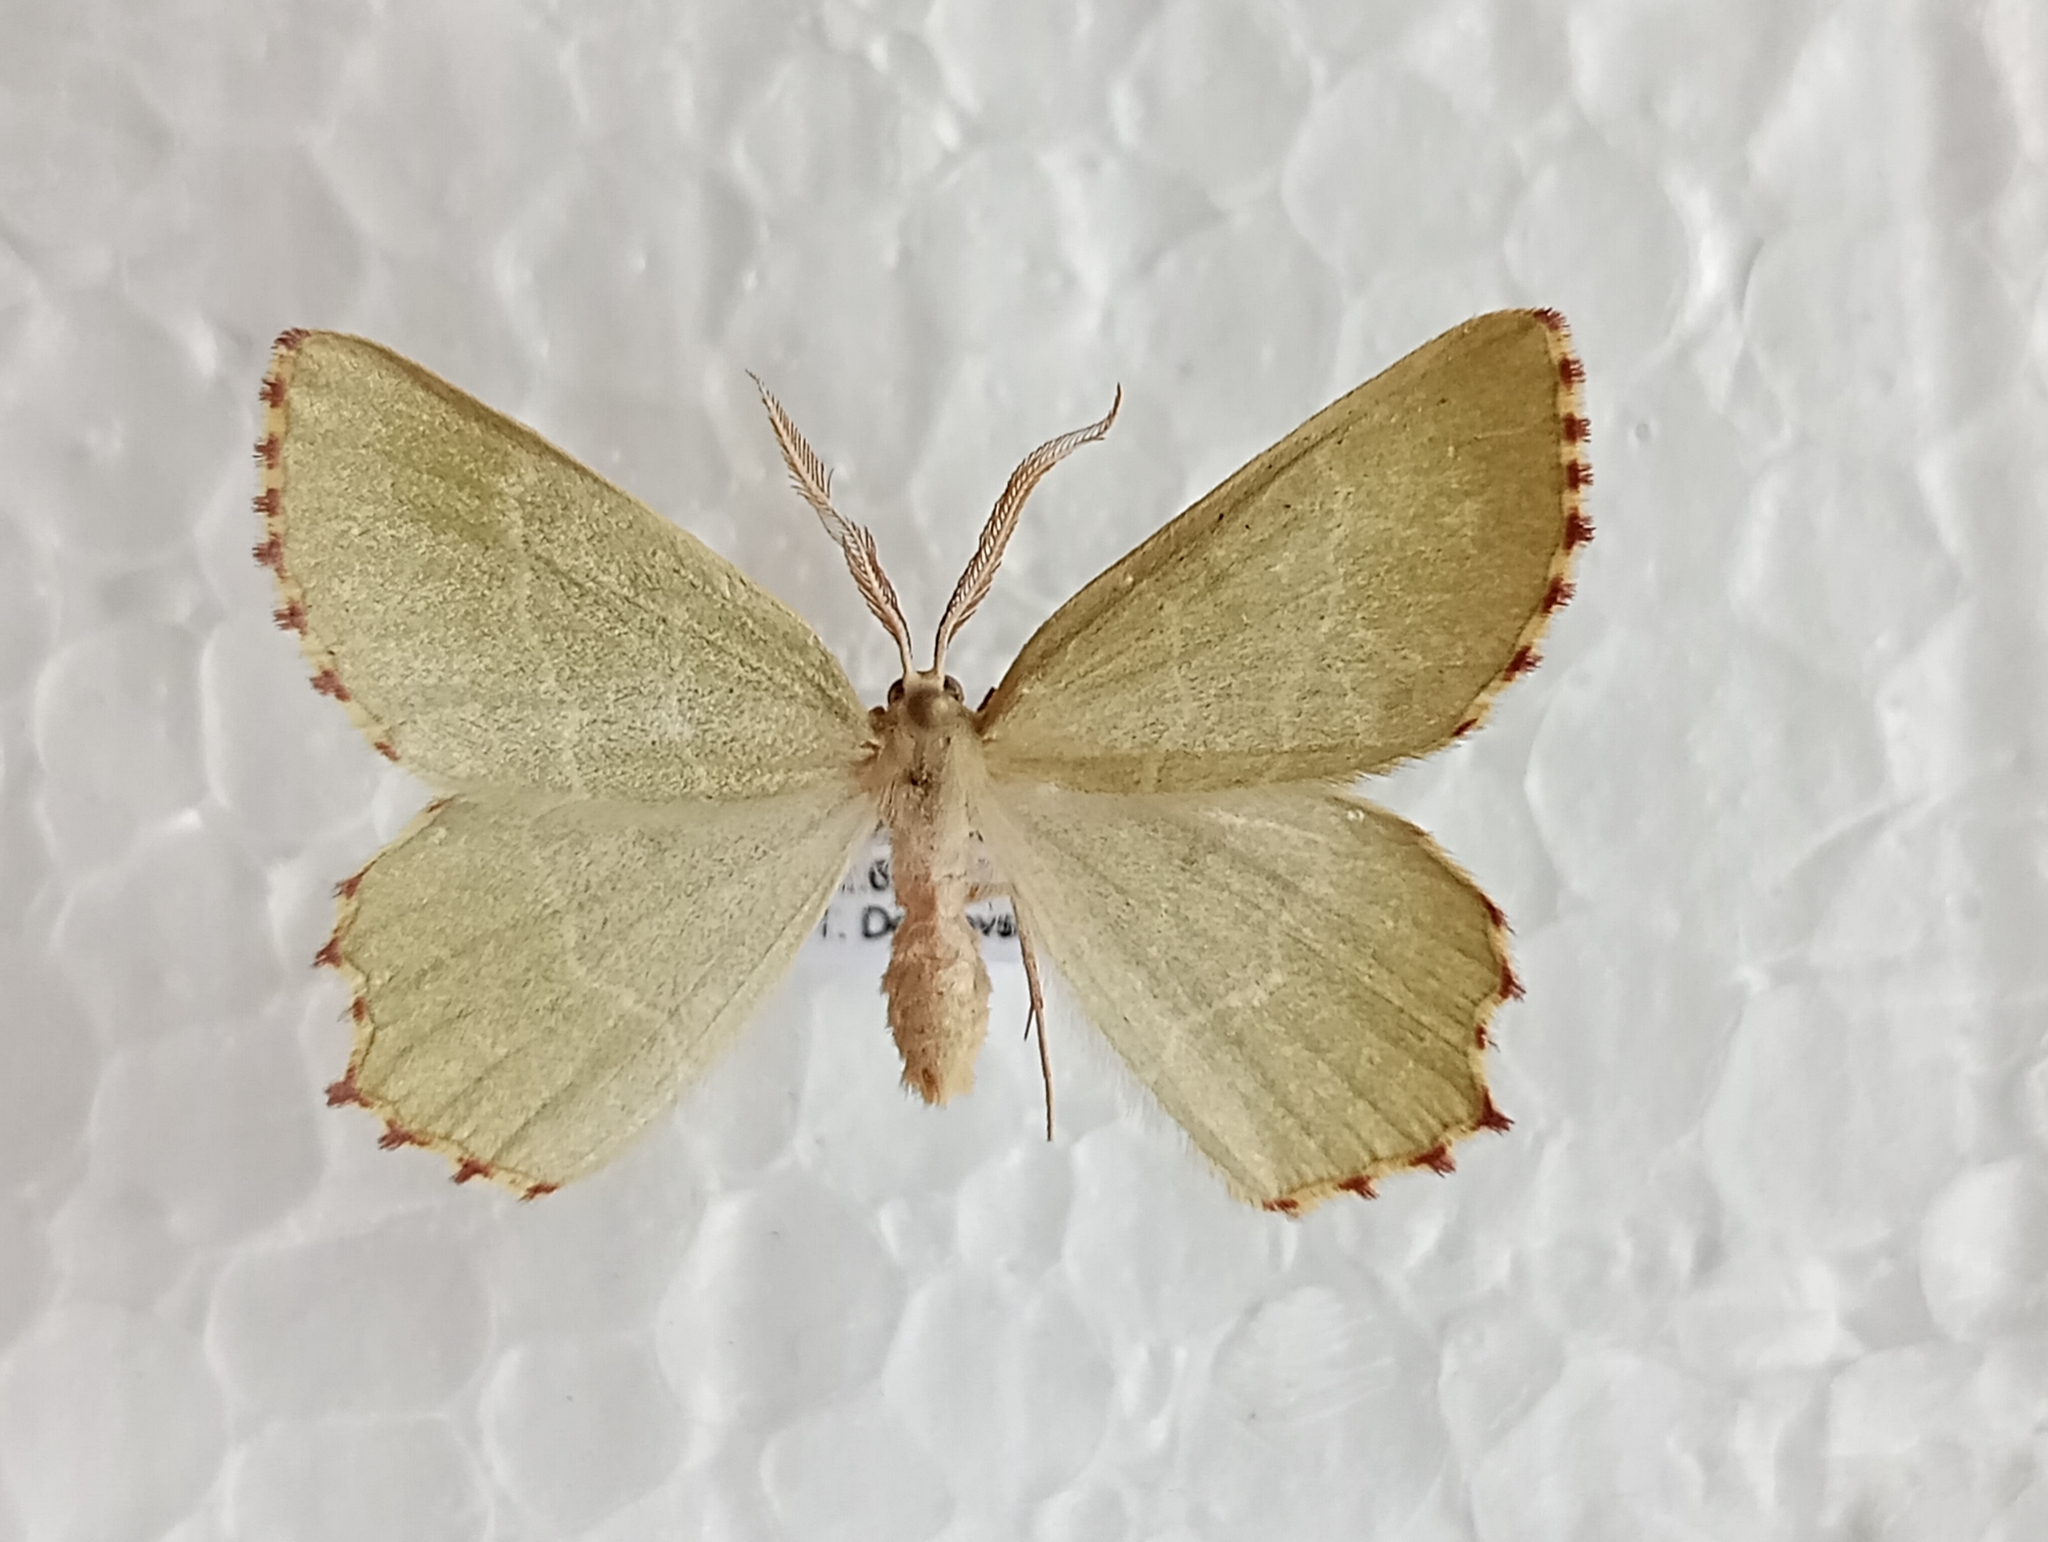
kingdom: Animalia
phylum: Arthropoda
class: Insecta
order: Lepidoptera
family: Geometridae
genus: Thalera
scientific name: Thalera fimbrialis
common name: Sussex emerald
